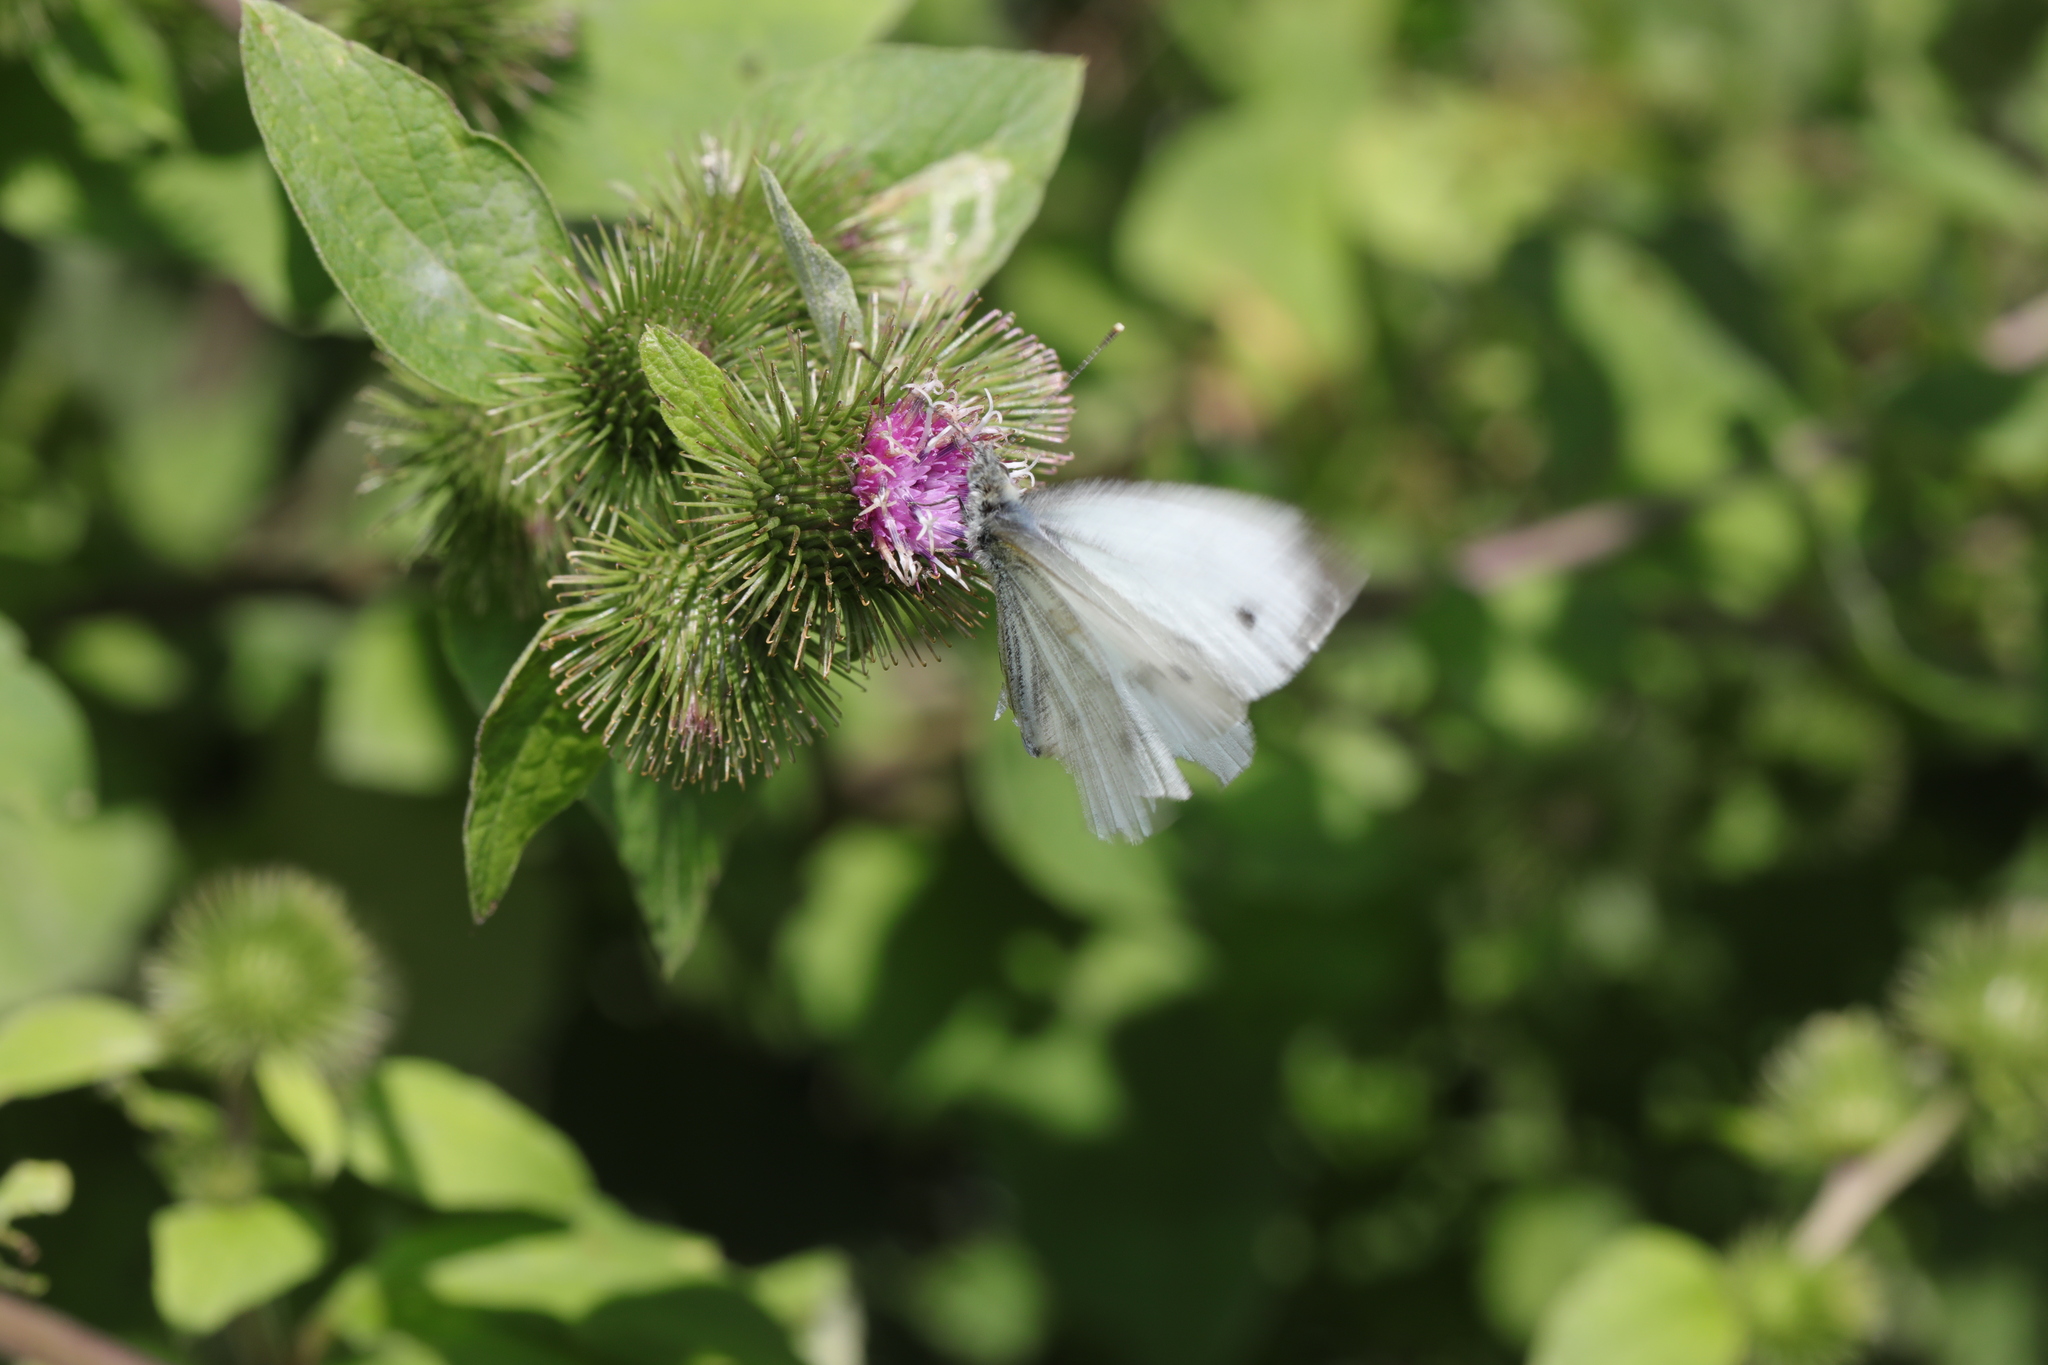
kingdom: Animalia
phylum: Arthropoda
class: Insecta
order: Lepidoptera
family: Pieridae
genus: Pieris
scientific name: Pieris napi
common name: Green-veined white
